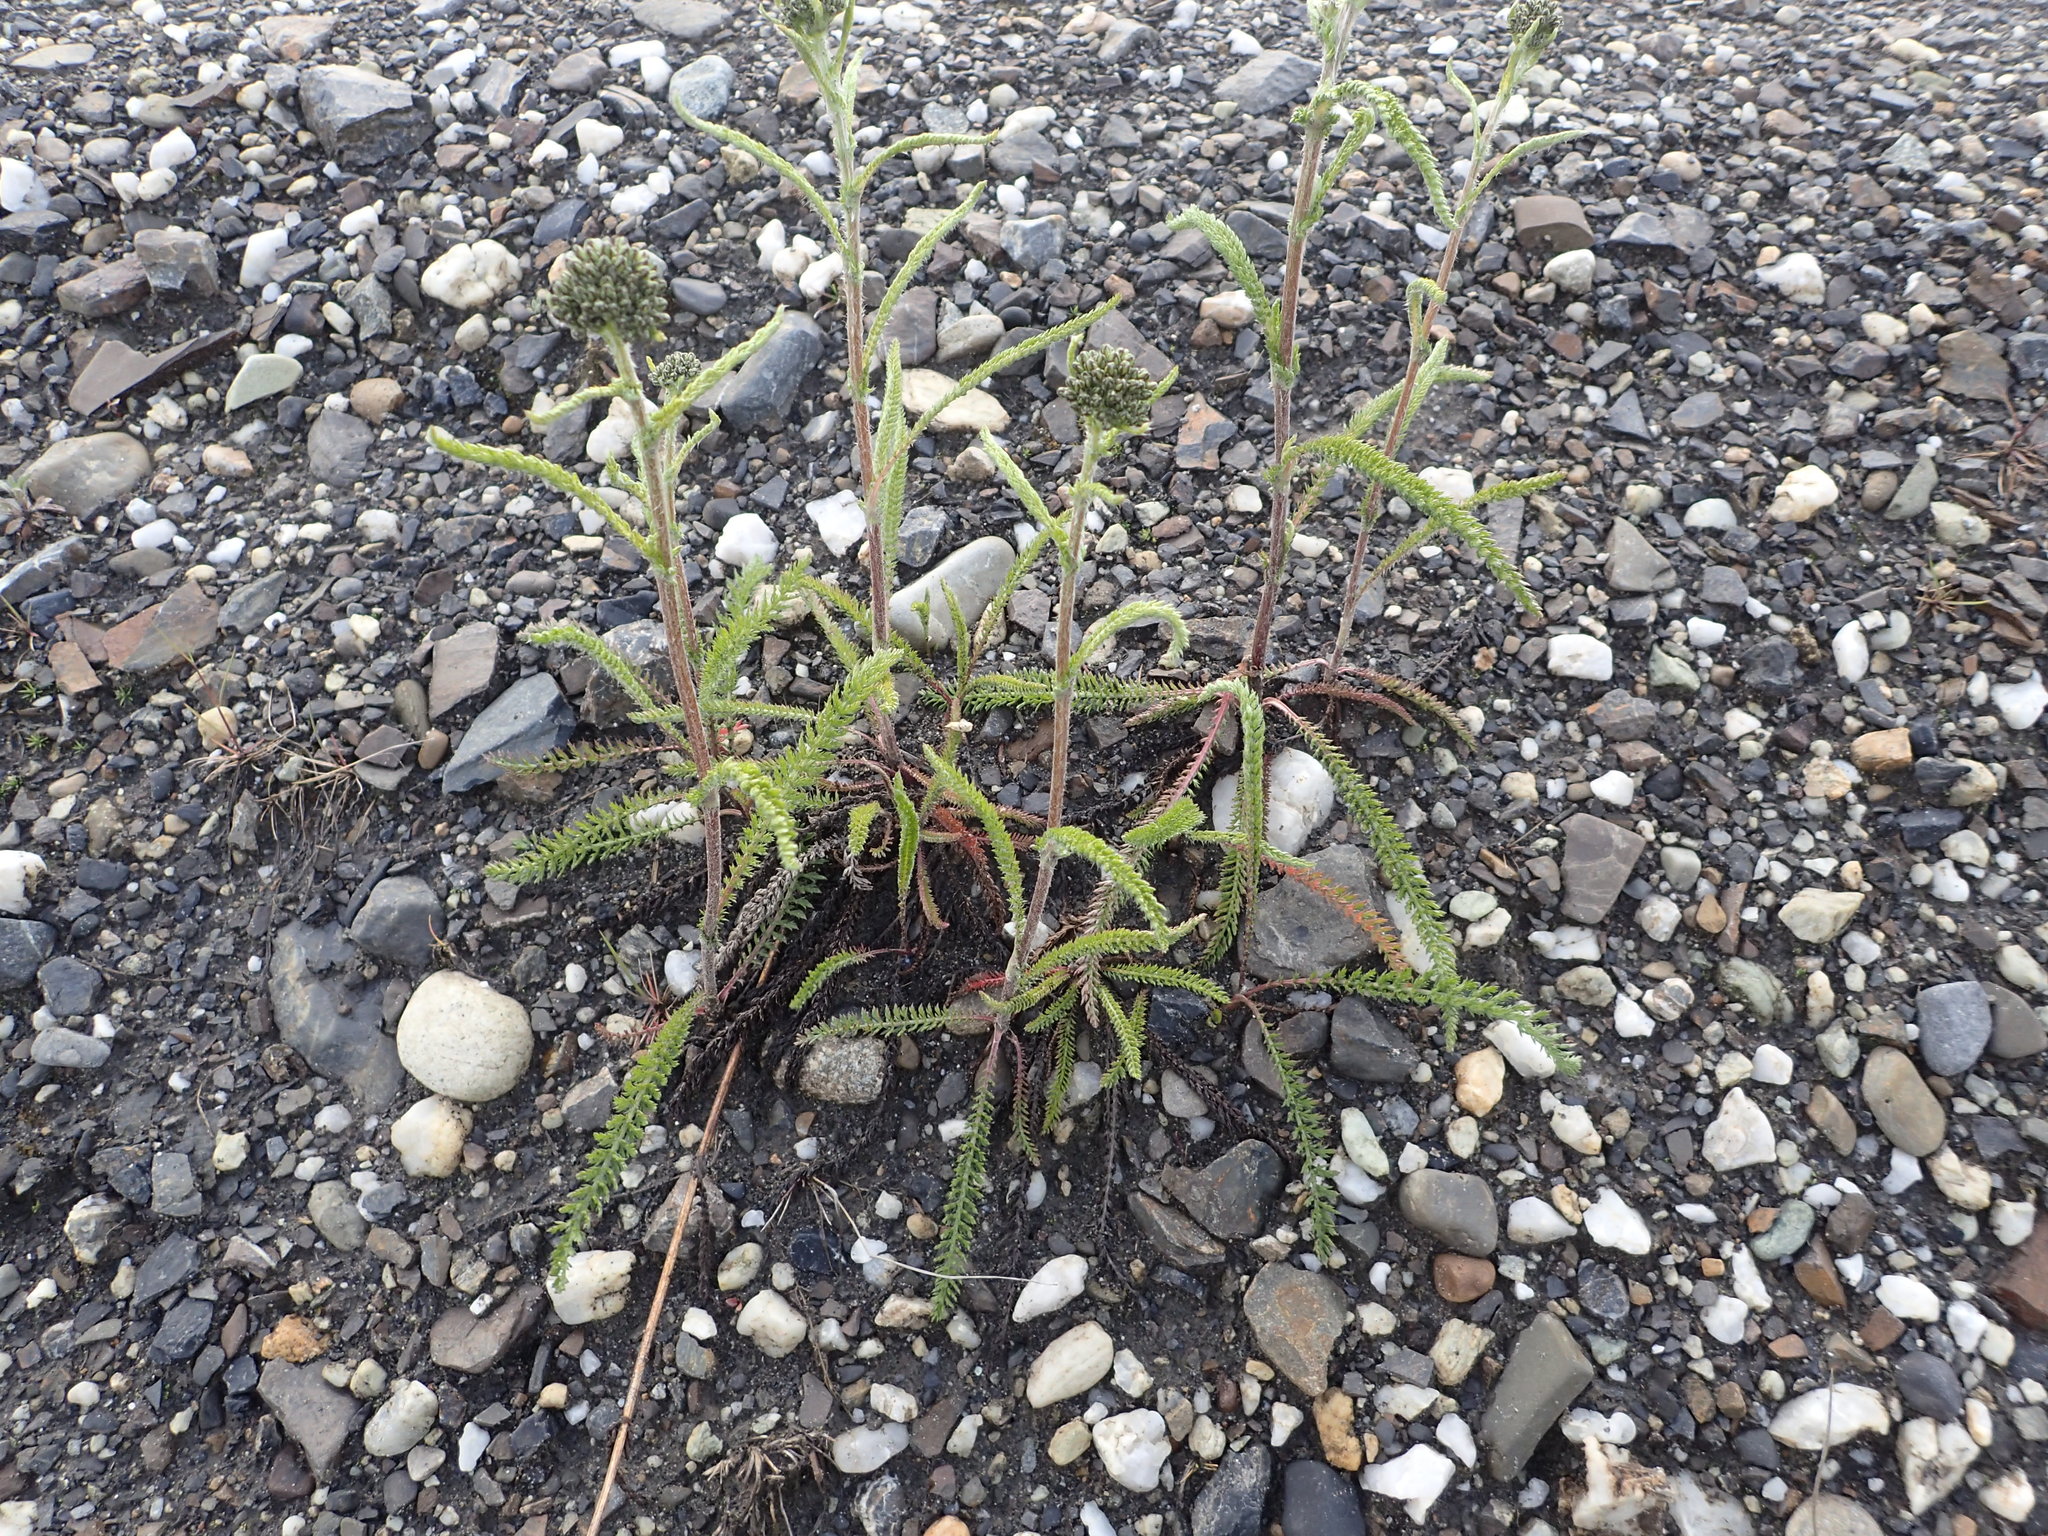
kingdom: Plantae
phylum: Tracheophyta
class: Magnoliopsida
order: Asterales
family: Asteraceae
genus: Achillea
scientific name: Achillea millefolium
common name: Yarrow
